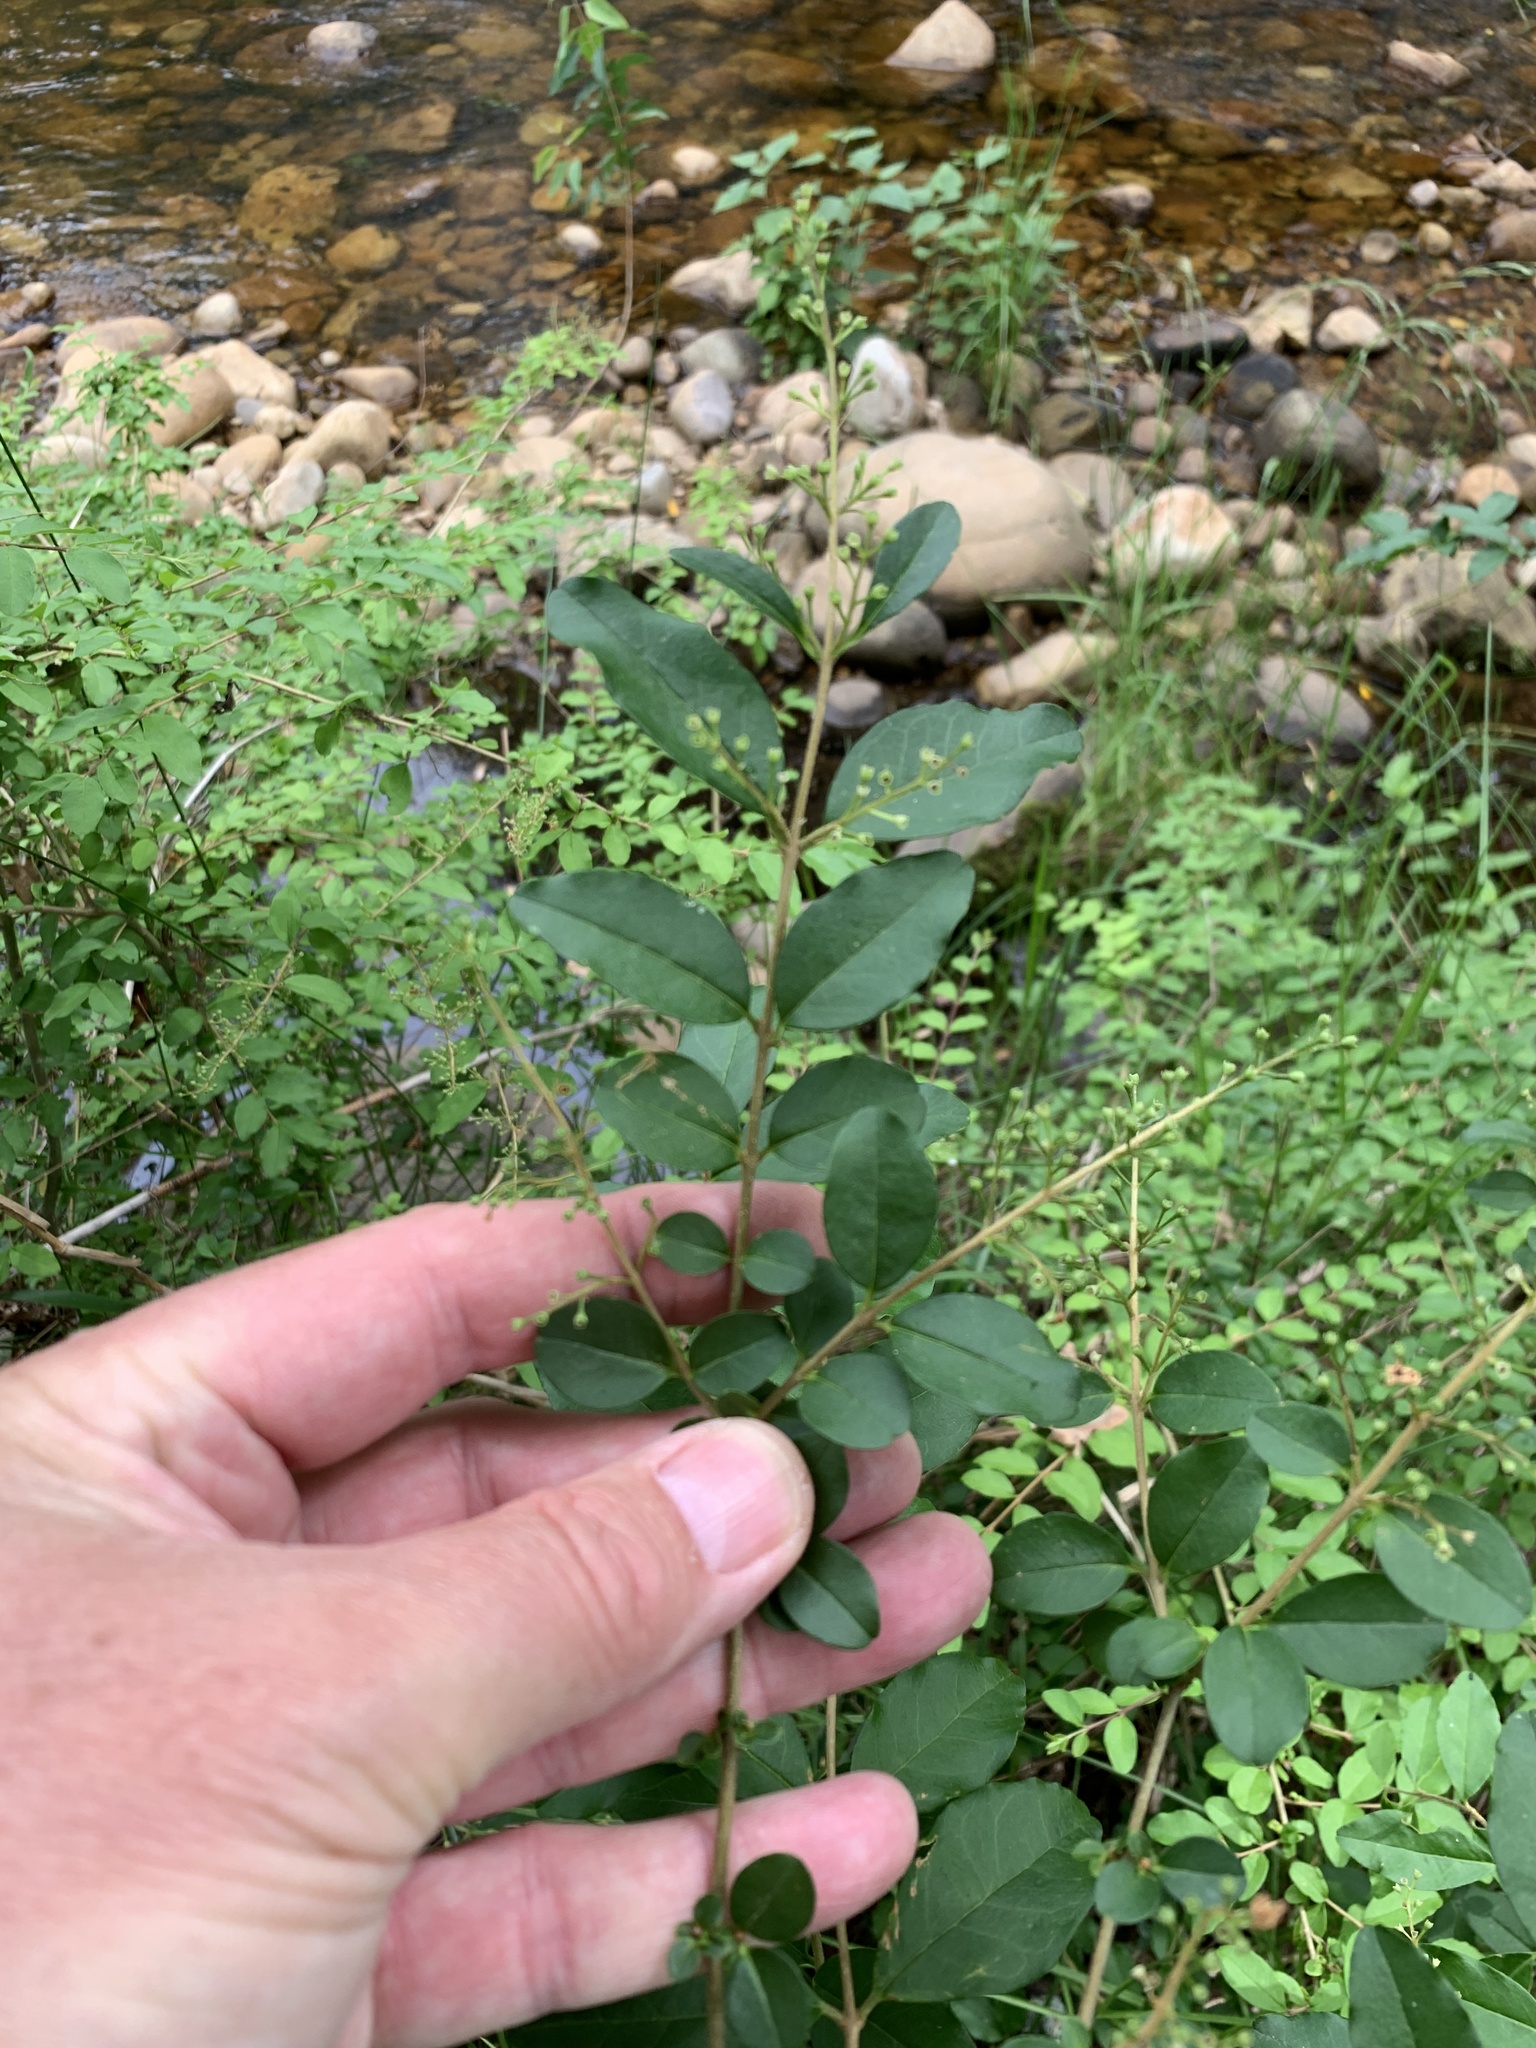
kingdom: Plantae
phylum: Tracheophyta
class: Magnoliopsida
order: Lamiales
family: Oleaceae
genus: Ligustrum
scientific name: Ligustrum sinense
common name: Chinese privet
